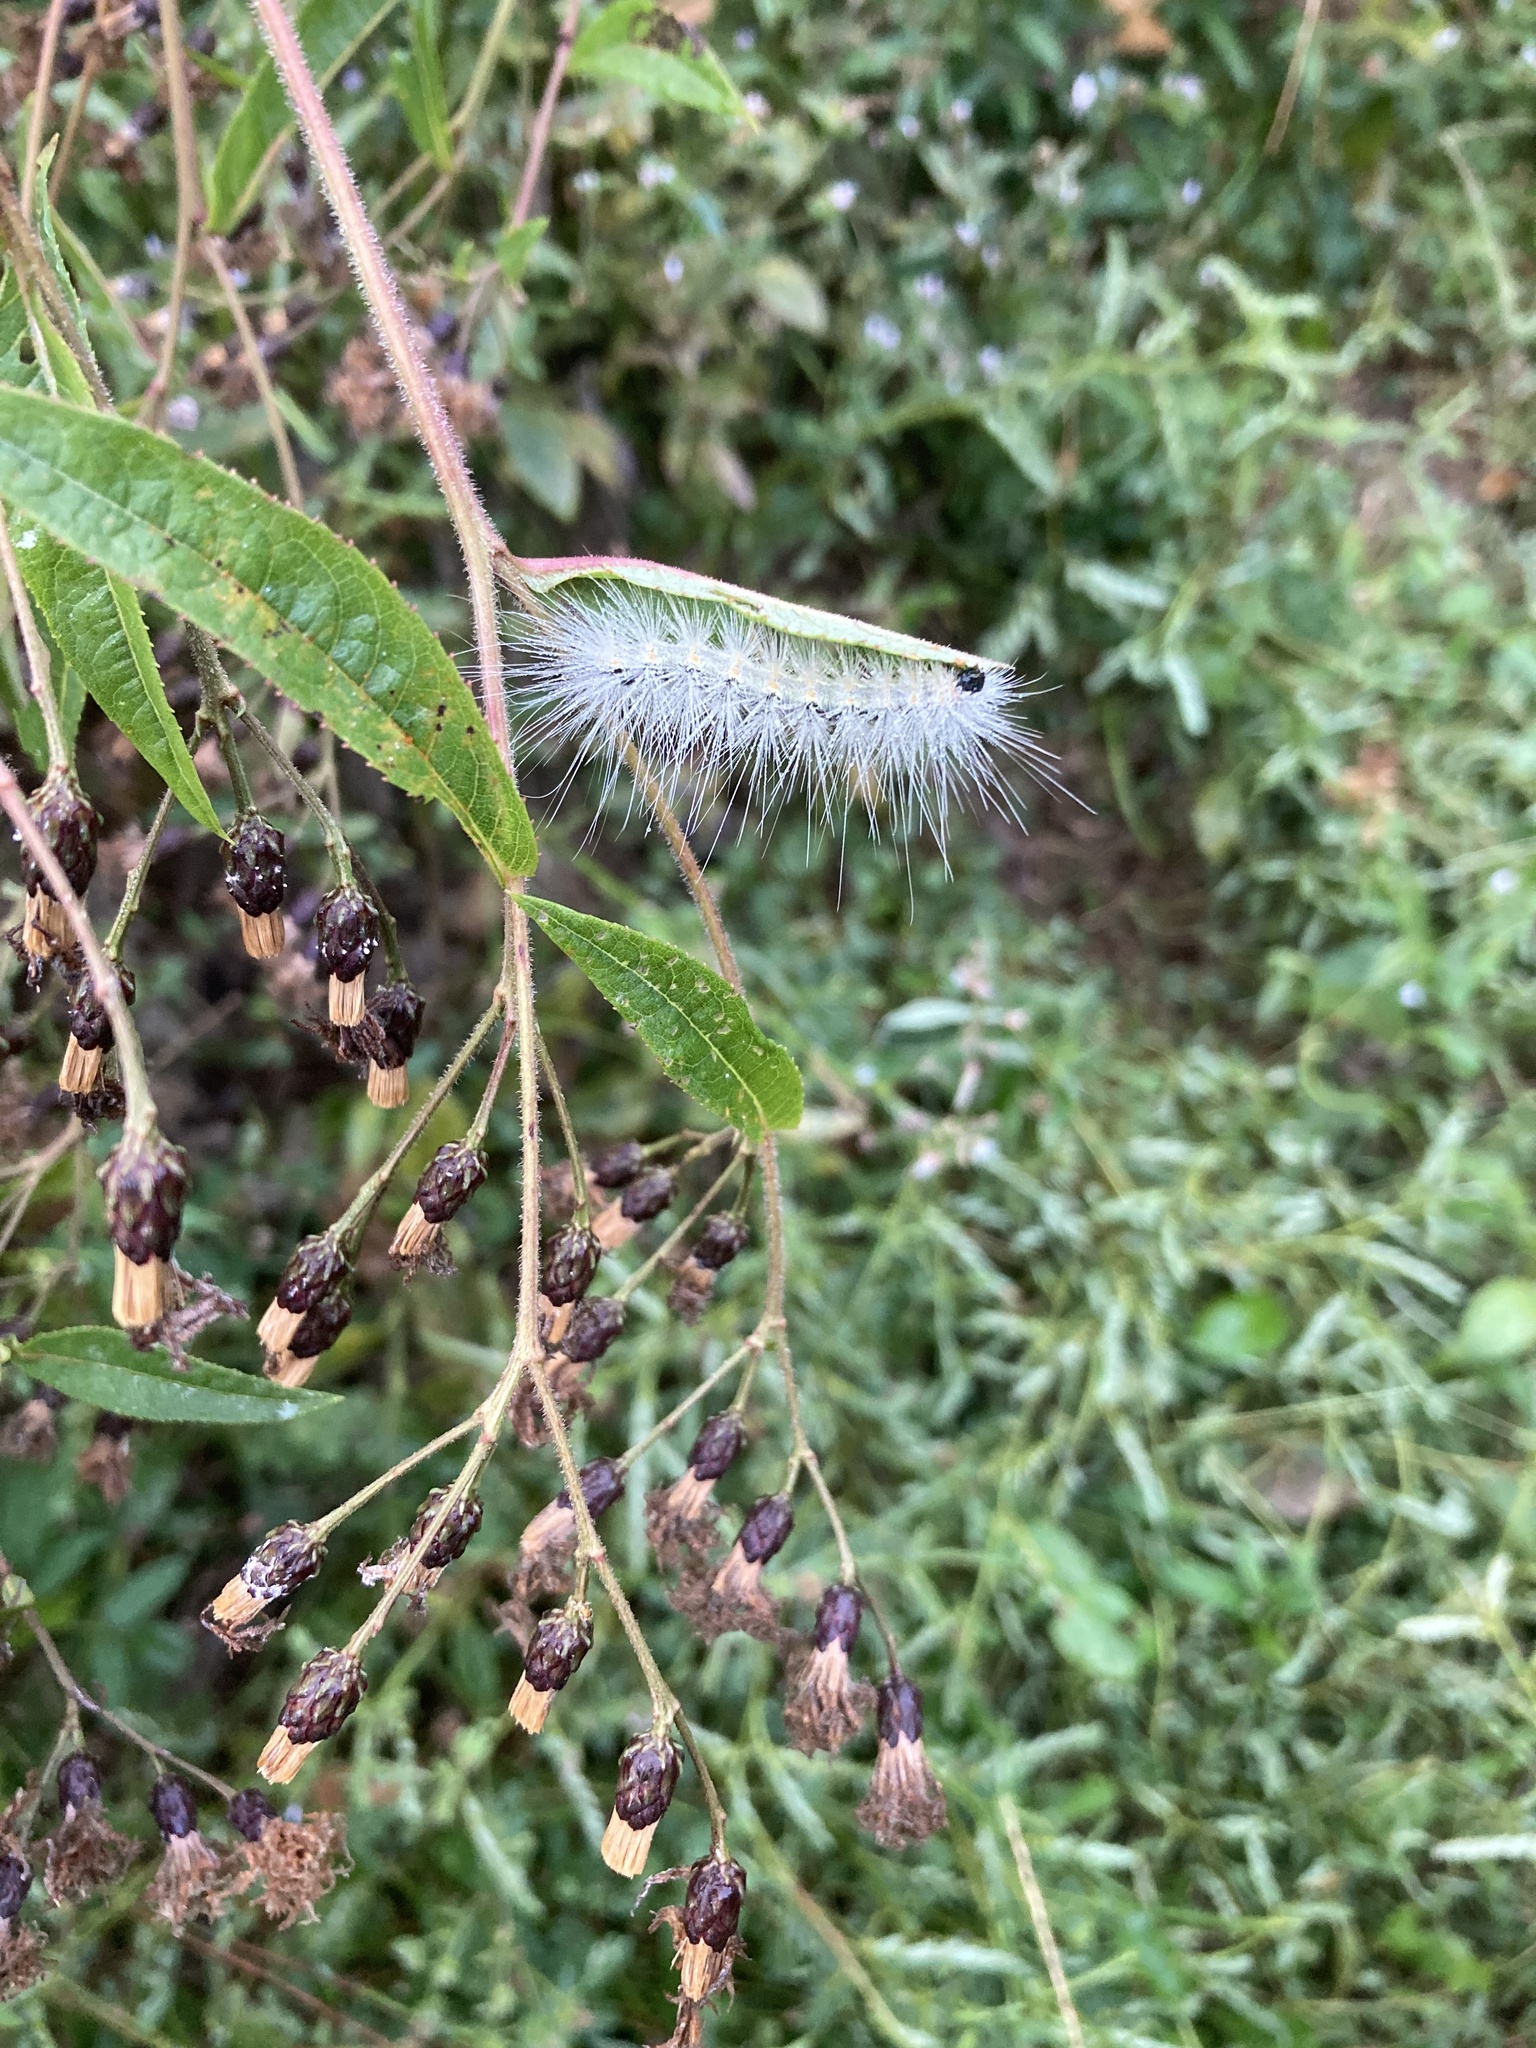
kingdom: Animalia
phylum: Arthropoda
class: Insecta
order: Lepidoptera
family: Erebidae
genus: Hyphantria
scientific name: Hyphantria cunea
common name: American white moth
